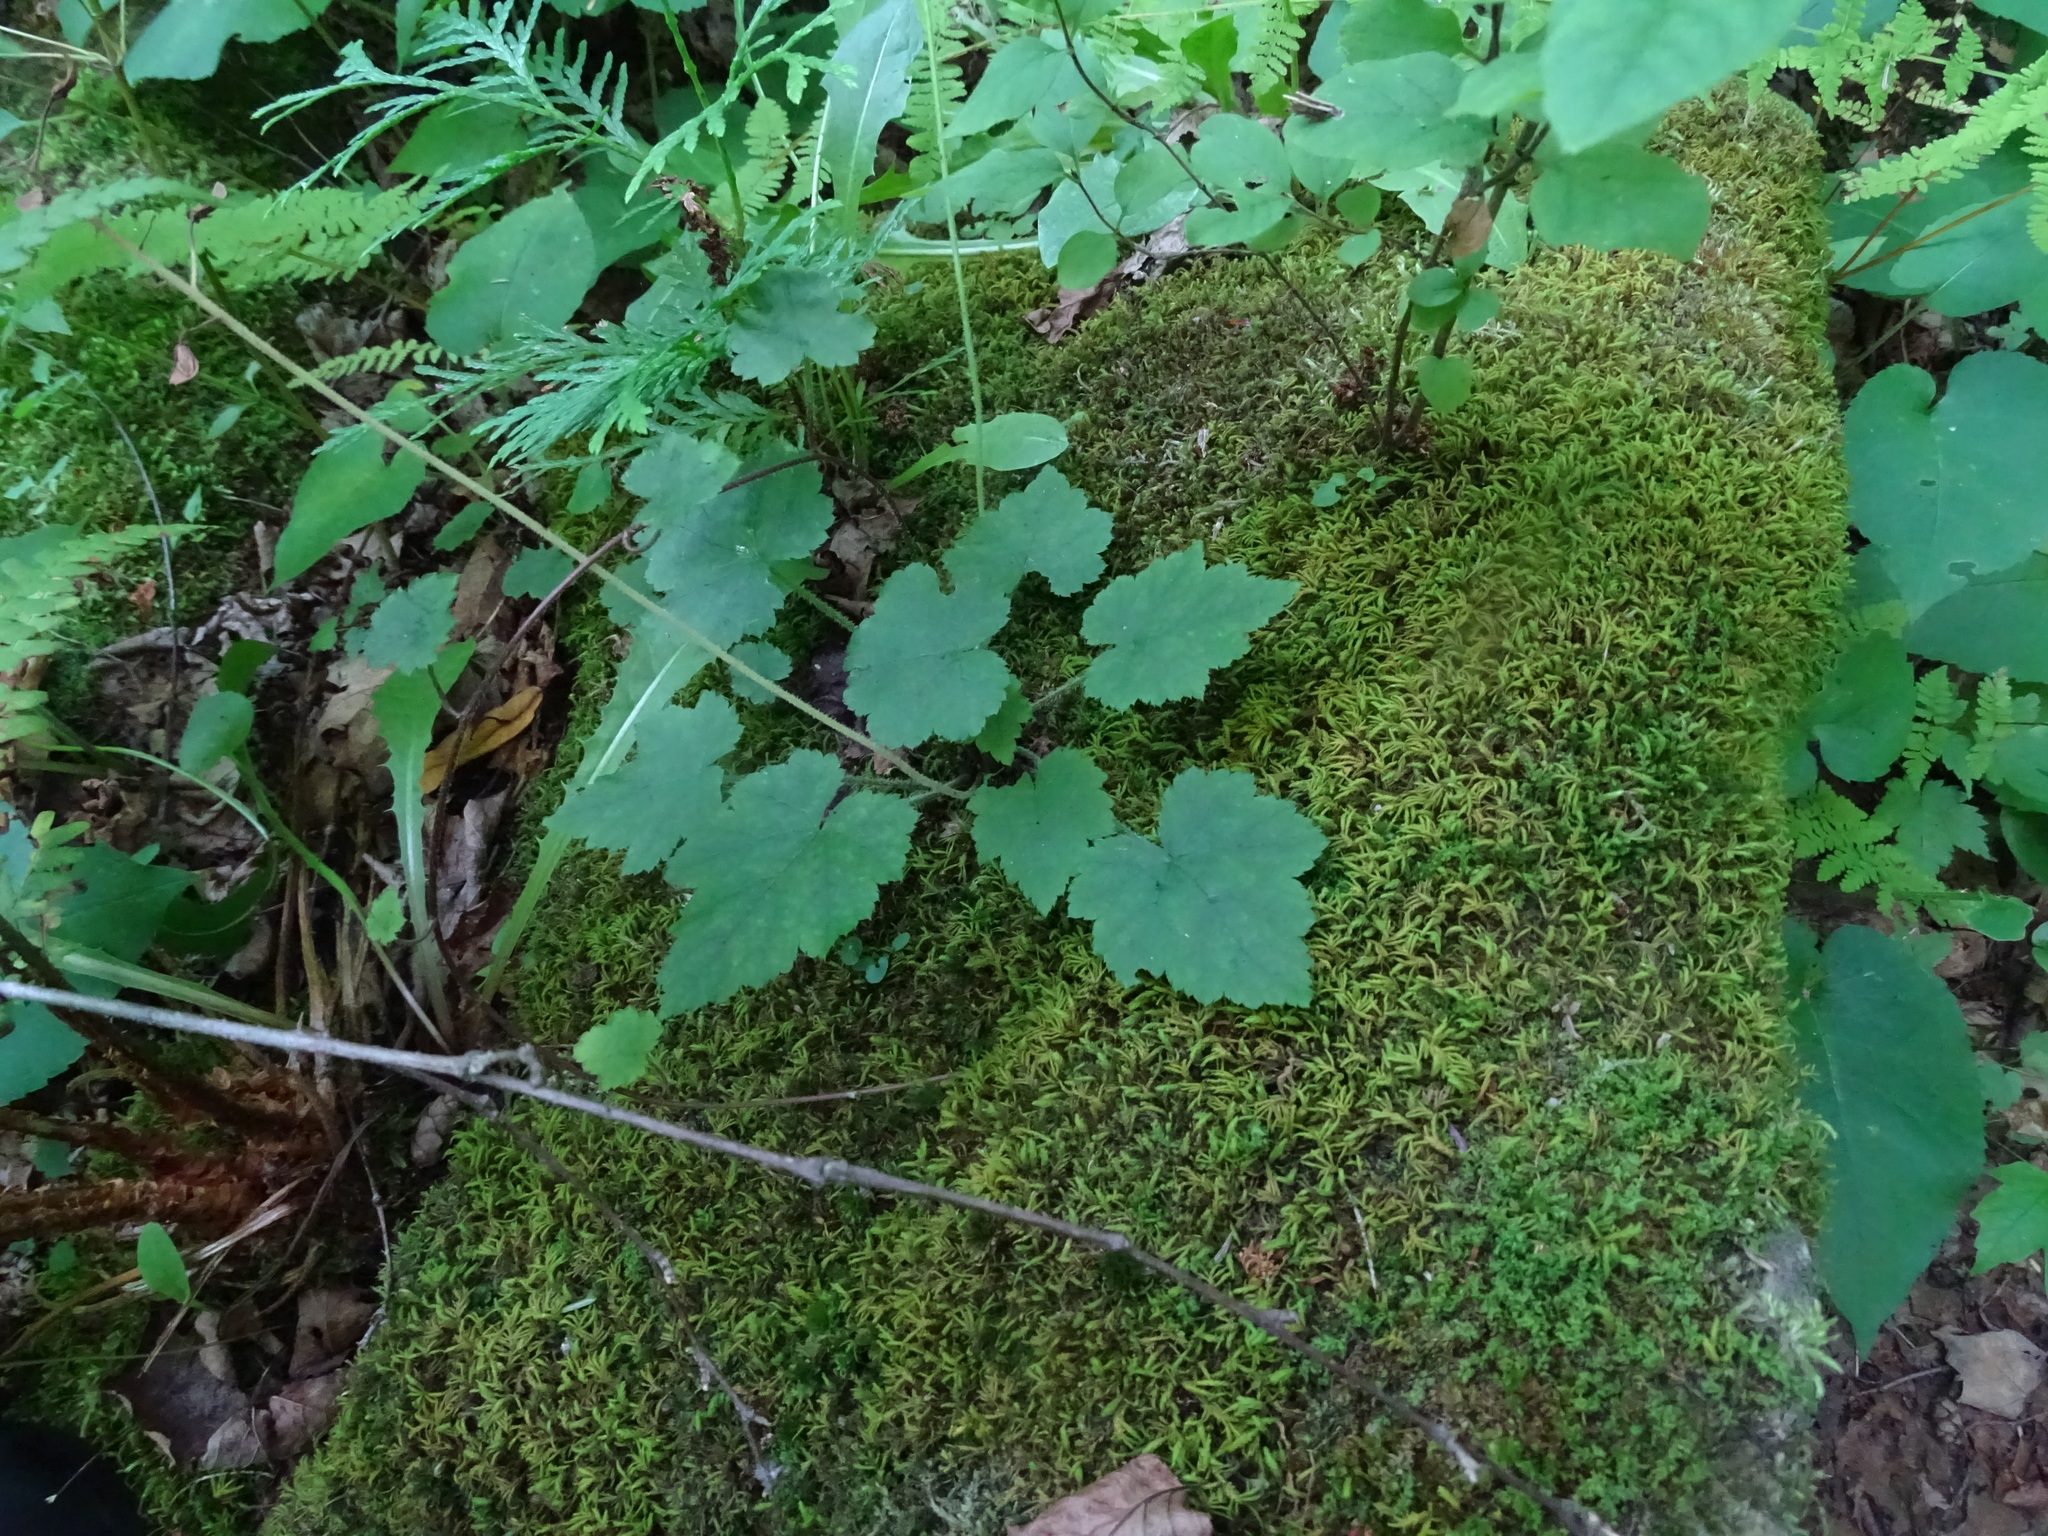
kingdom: Plantae
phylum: Tracheophyta
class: Magnoliopsida
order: Saxifragales
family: Saxifragaceae
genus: Tiarella
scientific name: Tiarella stolonifera
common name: Stoloniferous foamflower
